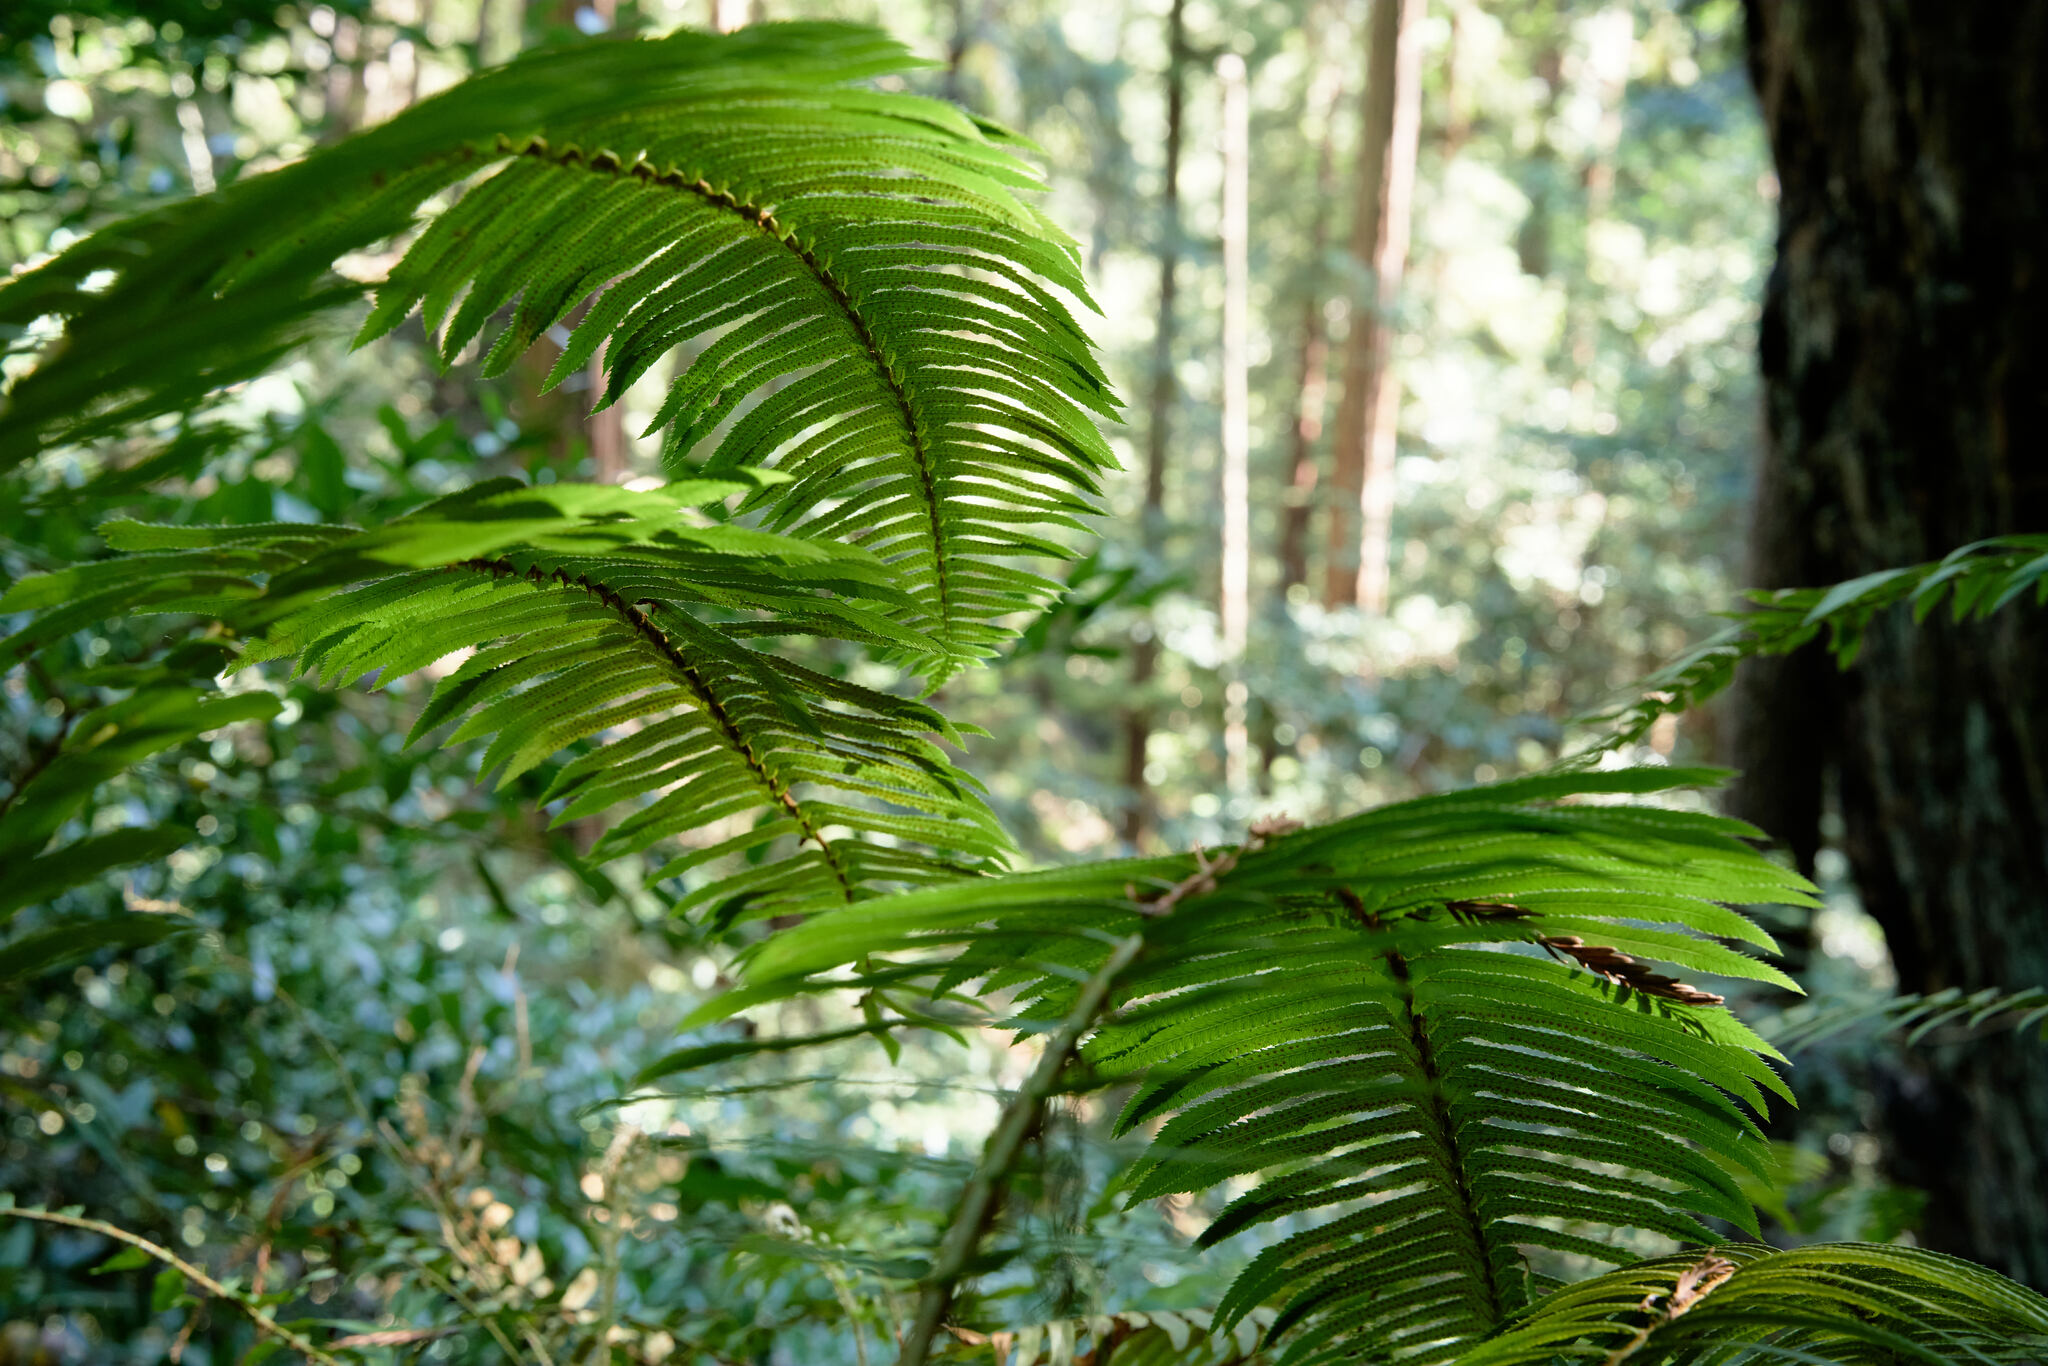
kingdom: Plantae
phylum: Tracheophyta
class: Polypodiopsida
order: Polypodiales
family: Dryopteridaceae
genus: Polystichum
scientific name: Polystichum munitum
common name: Western sword-fern
